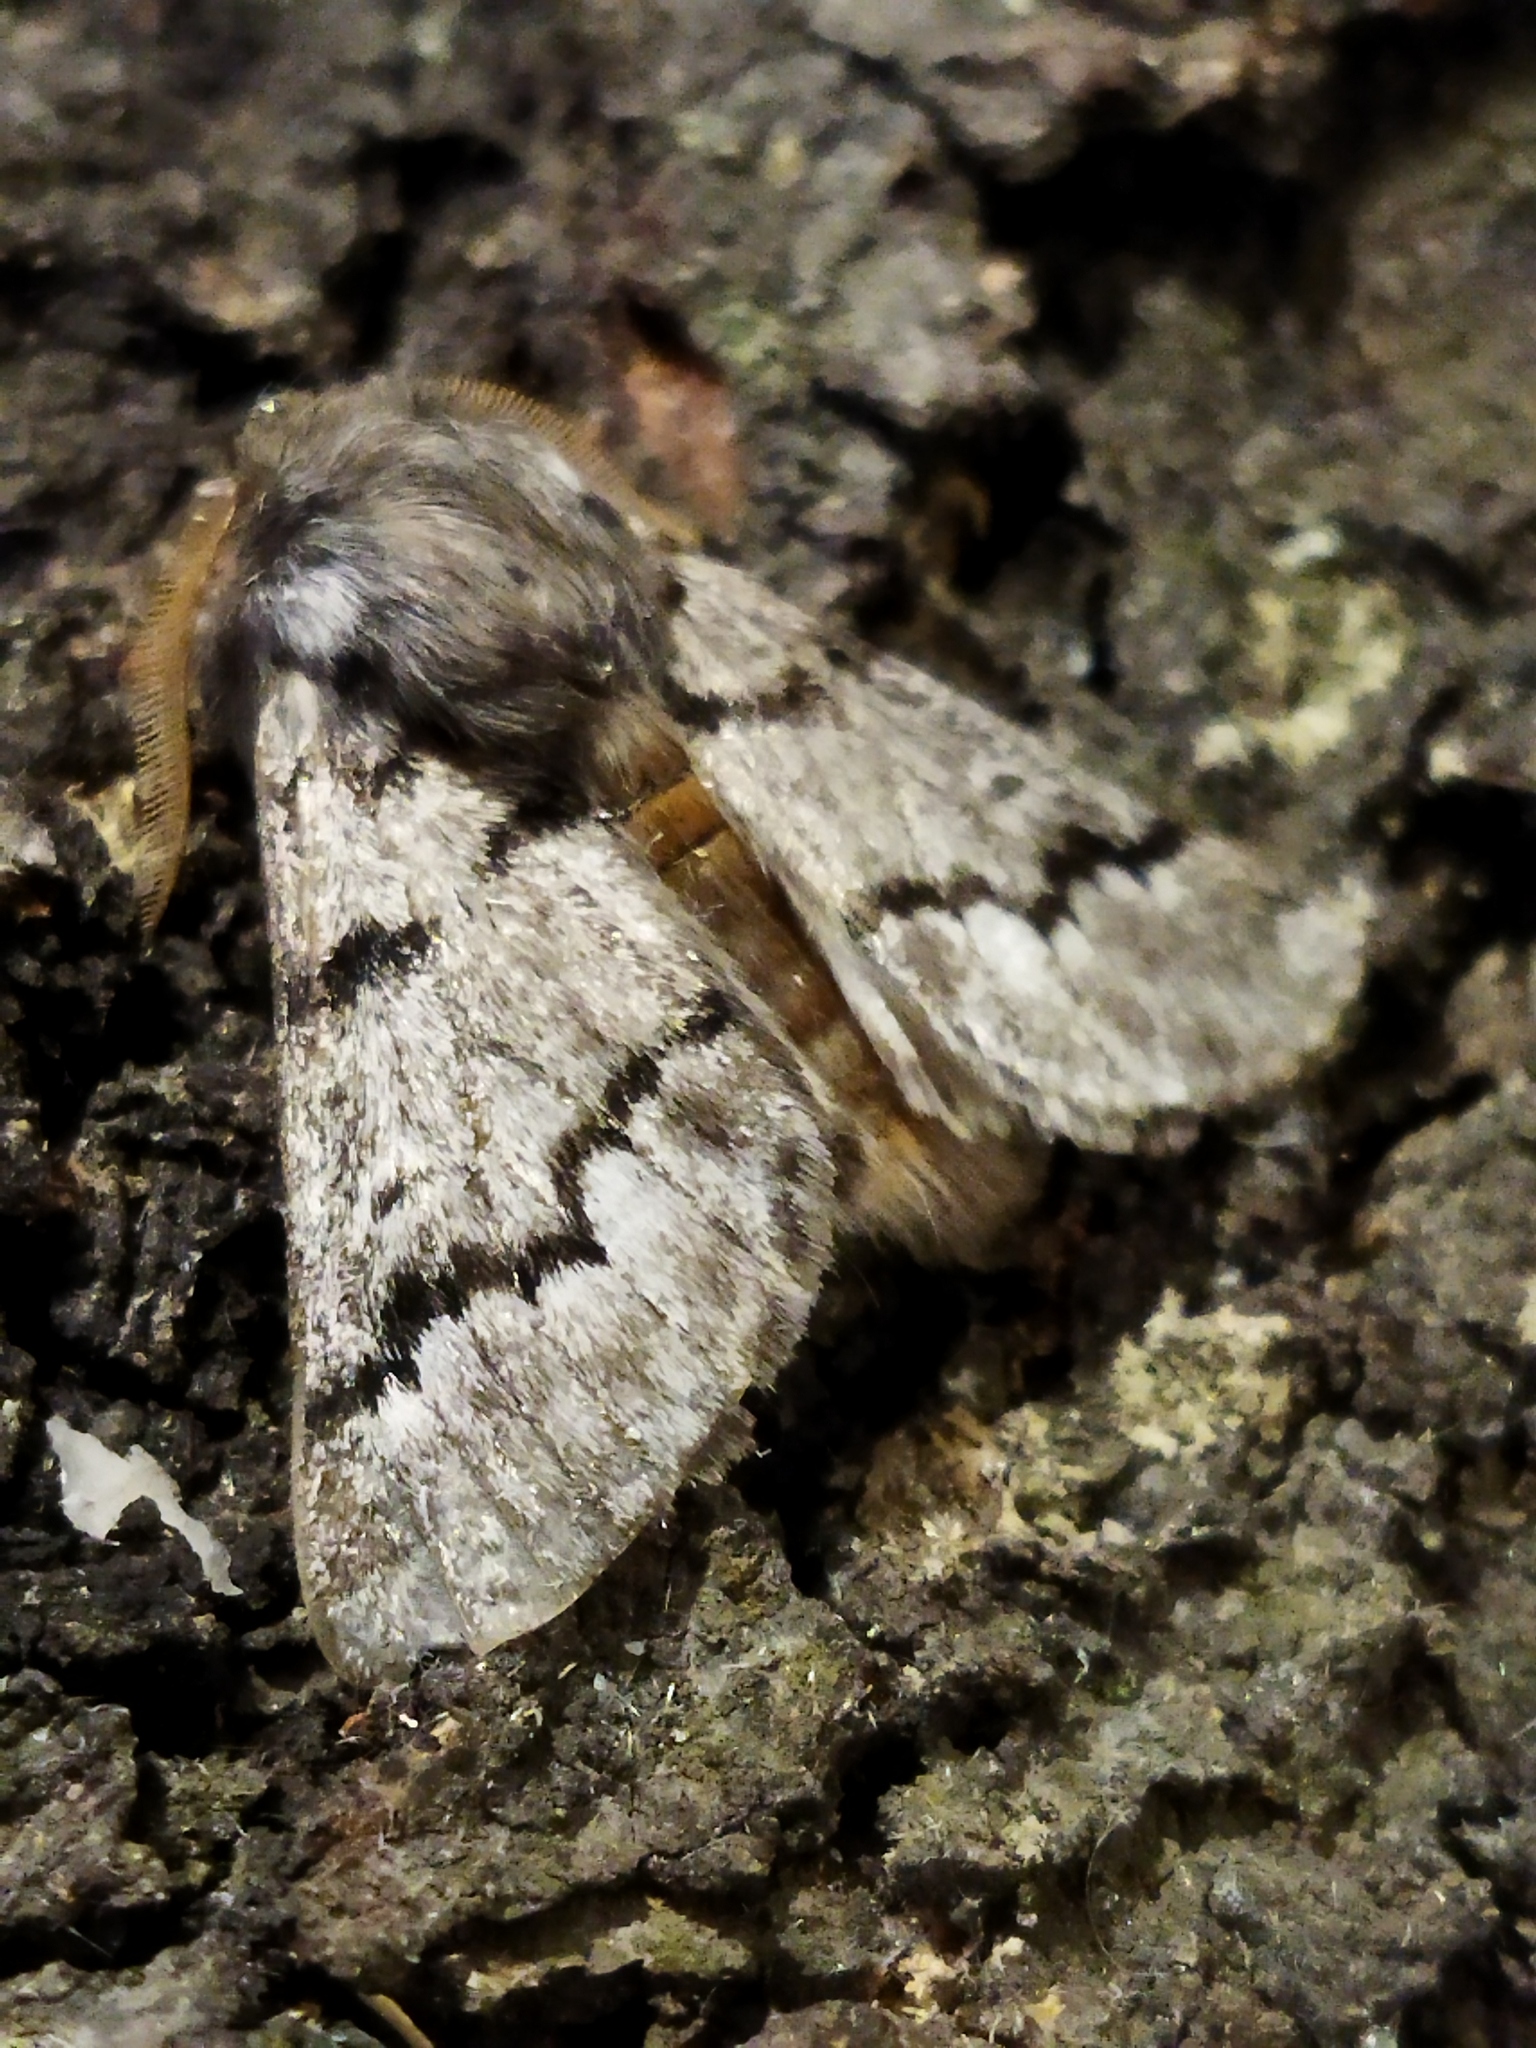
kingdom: Animalia
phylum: Arthropoda
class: Insecta
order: Lepidoptera
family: Notodontidae
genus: Thaumetopoea
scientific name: Thaumetopoea pityocampa
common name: Pine processionary
